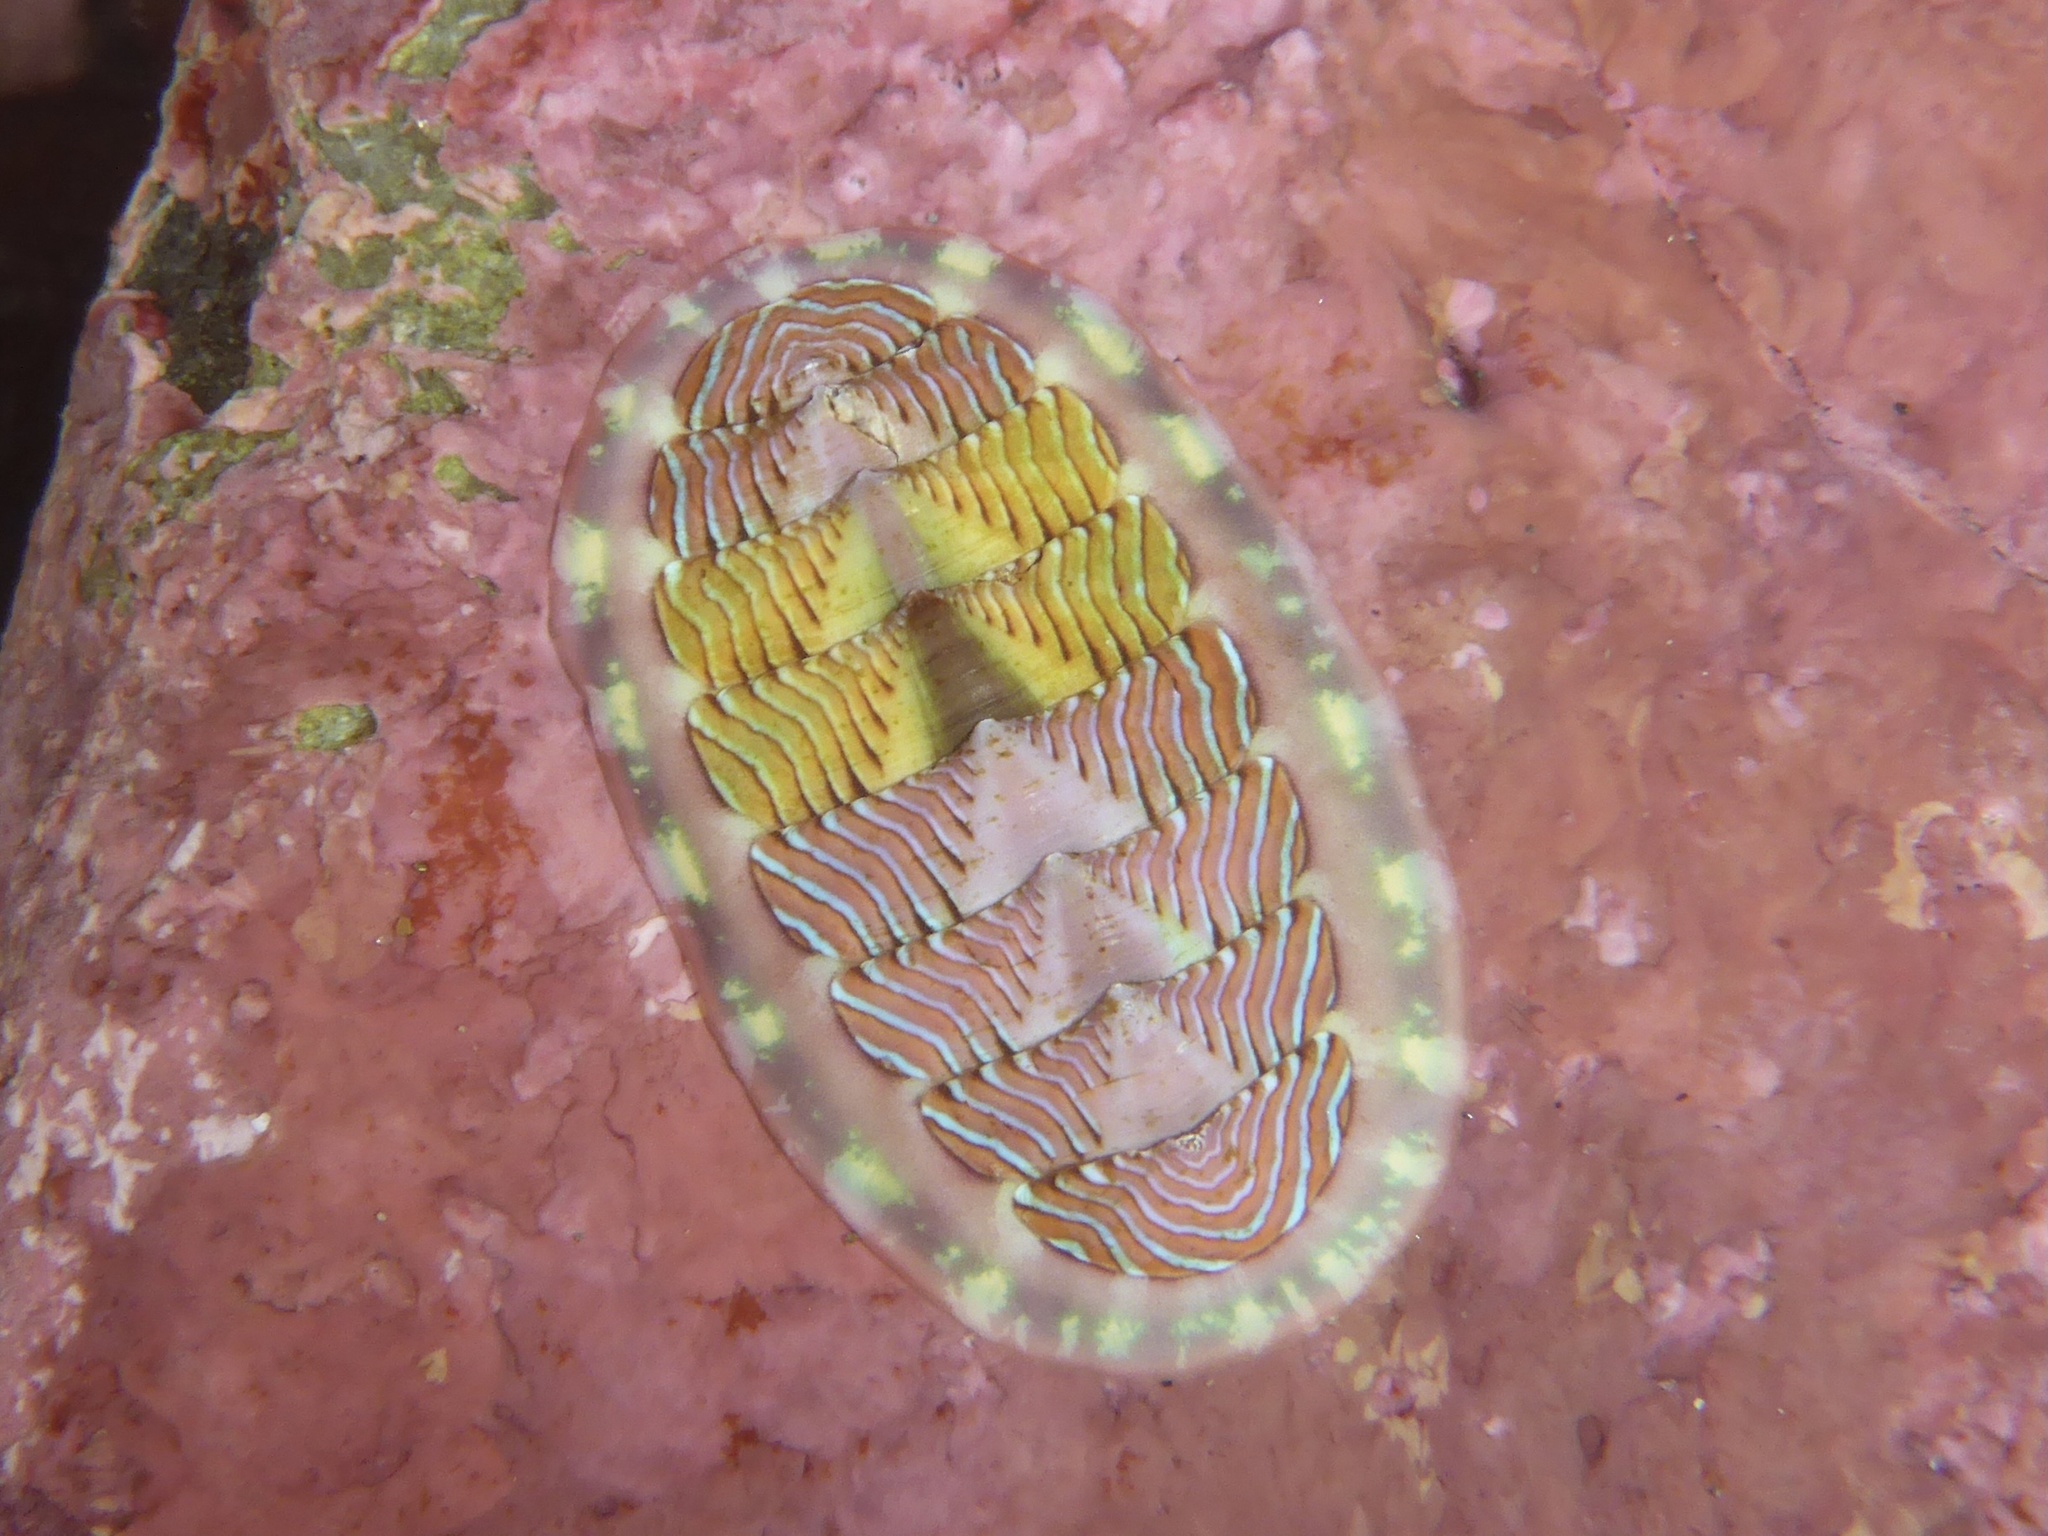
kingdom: Animalia
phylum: Mollusca
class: Polyplacophora
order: Chitonida
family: Tonicellidae
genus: Tonicella
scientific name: Tonicella lineata
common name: Lined chiton
